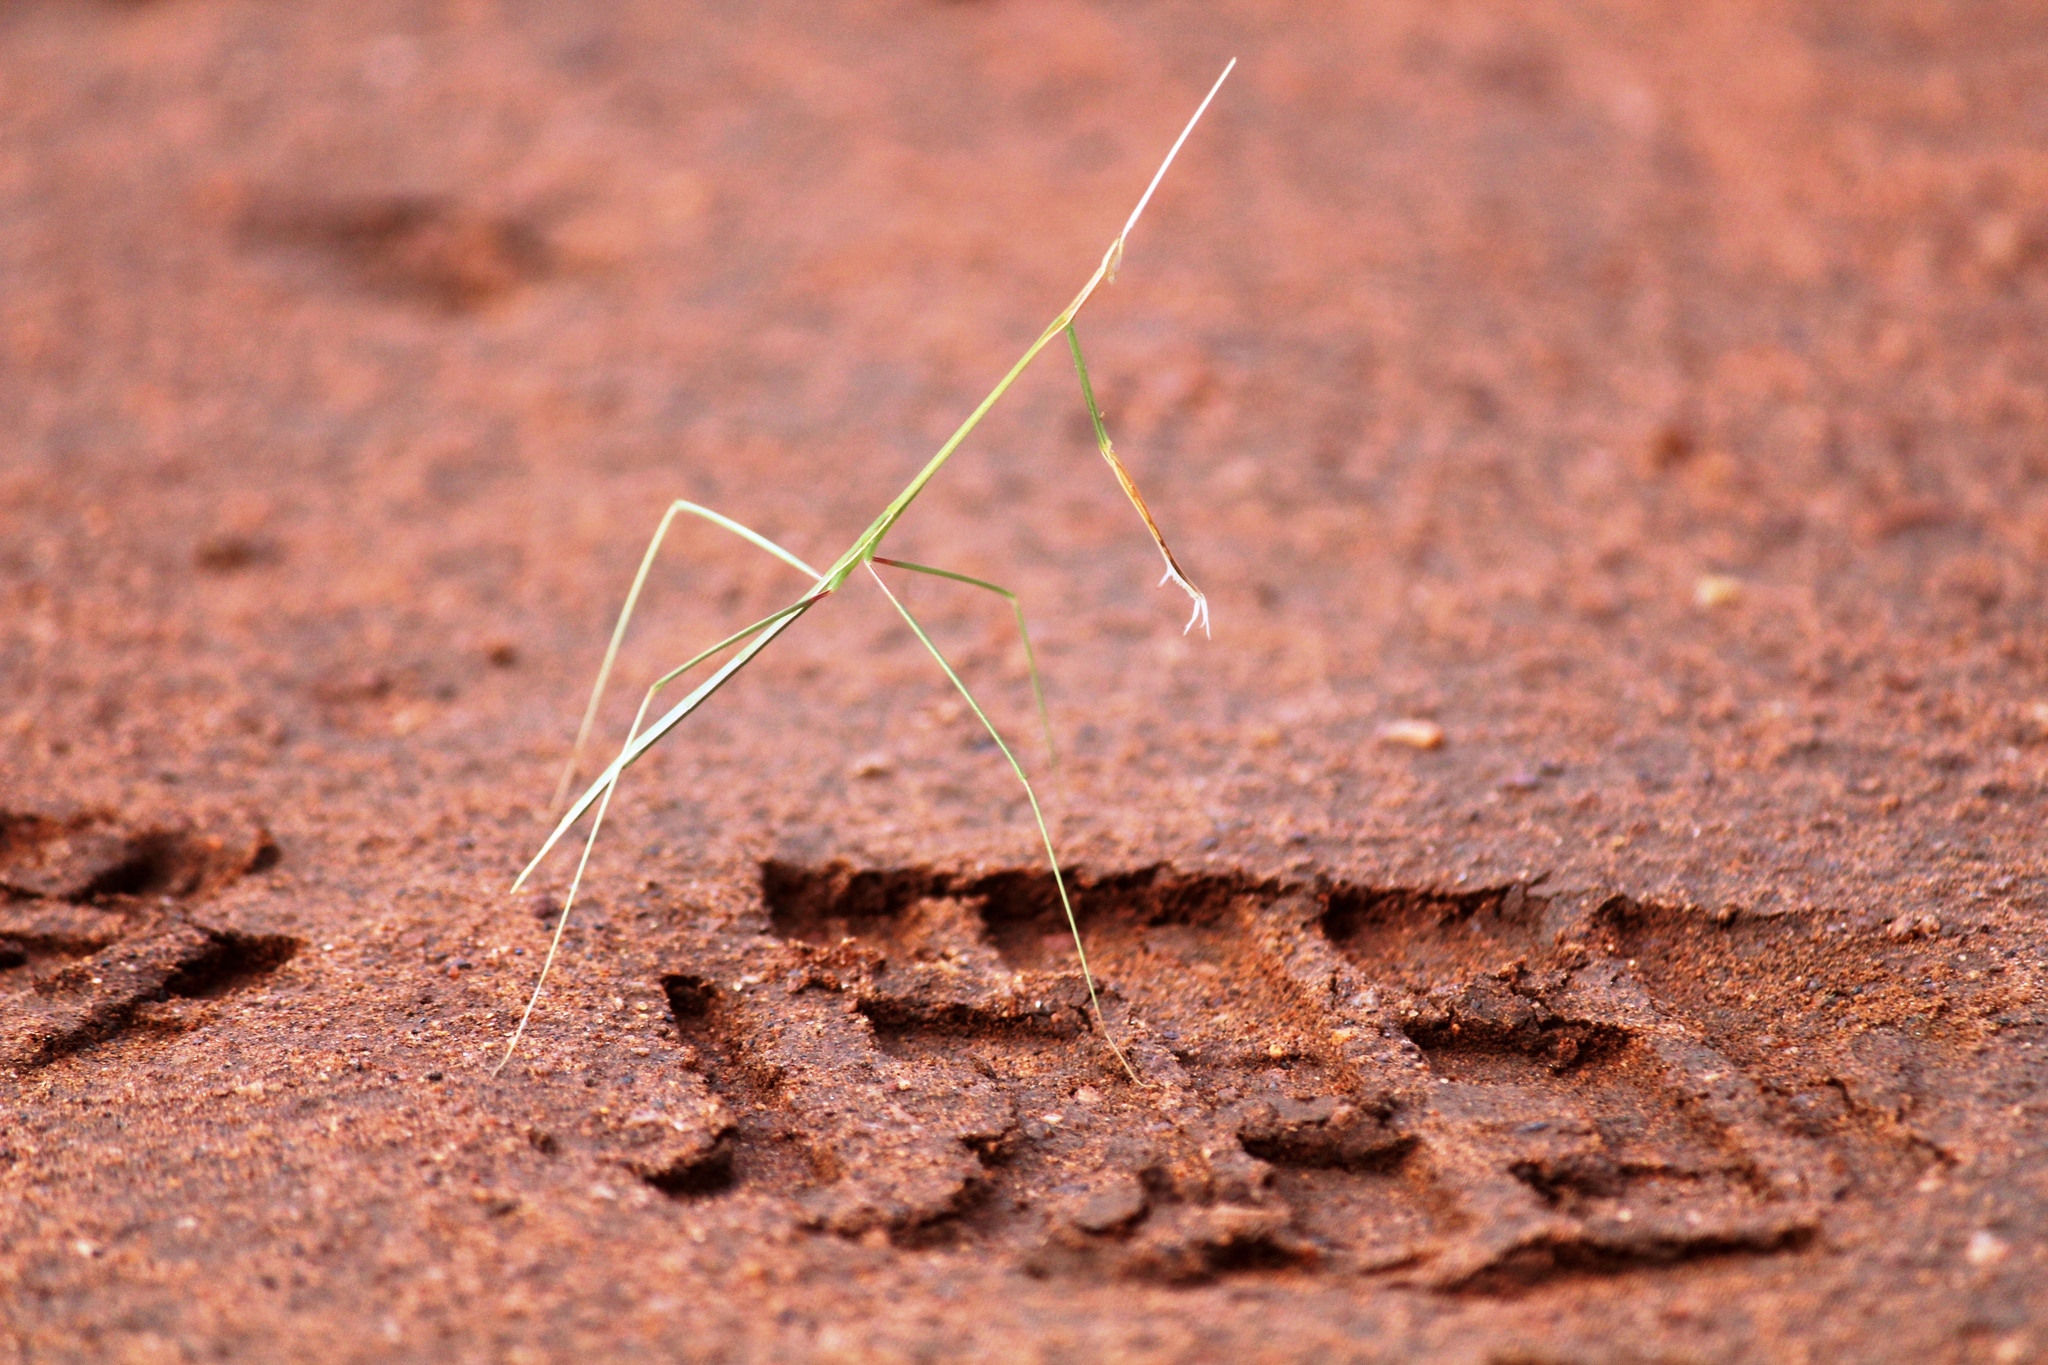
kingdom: Animalia
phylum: Arthropoda
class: Insecta
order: Mantodea
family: Eremiaphilidae
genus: Schizocephala
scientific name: Schizocephala bicornis
